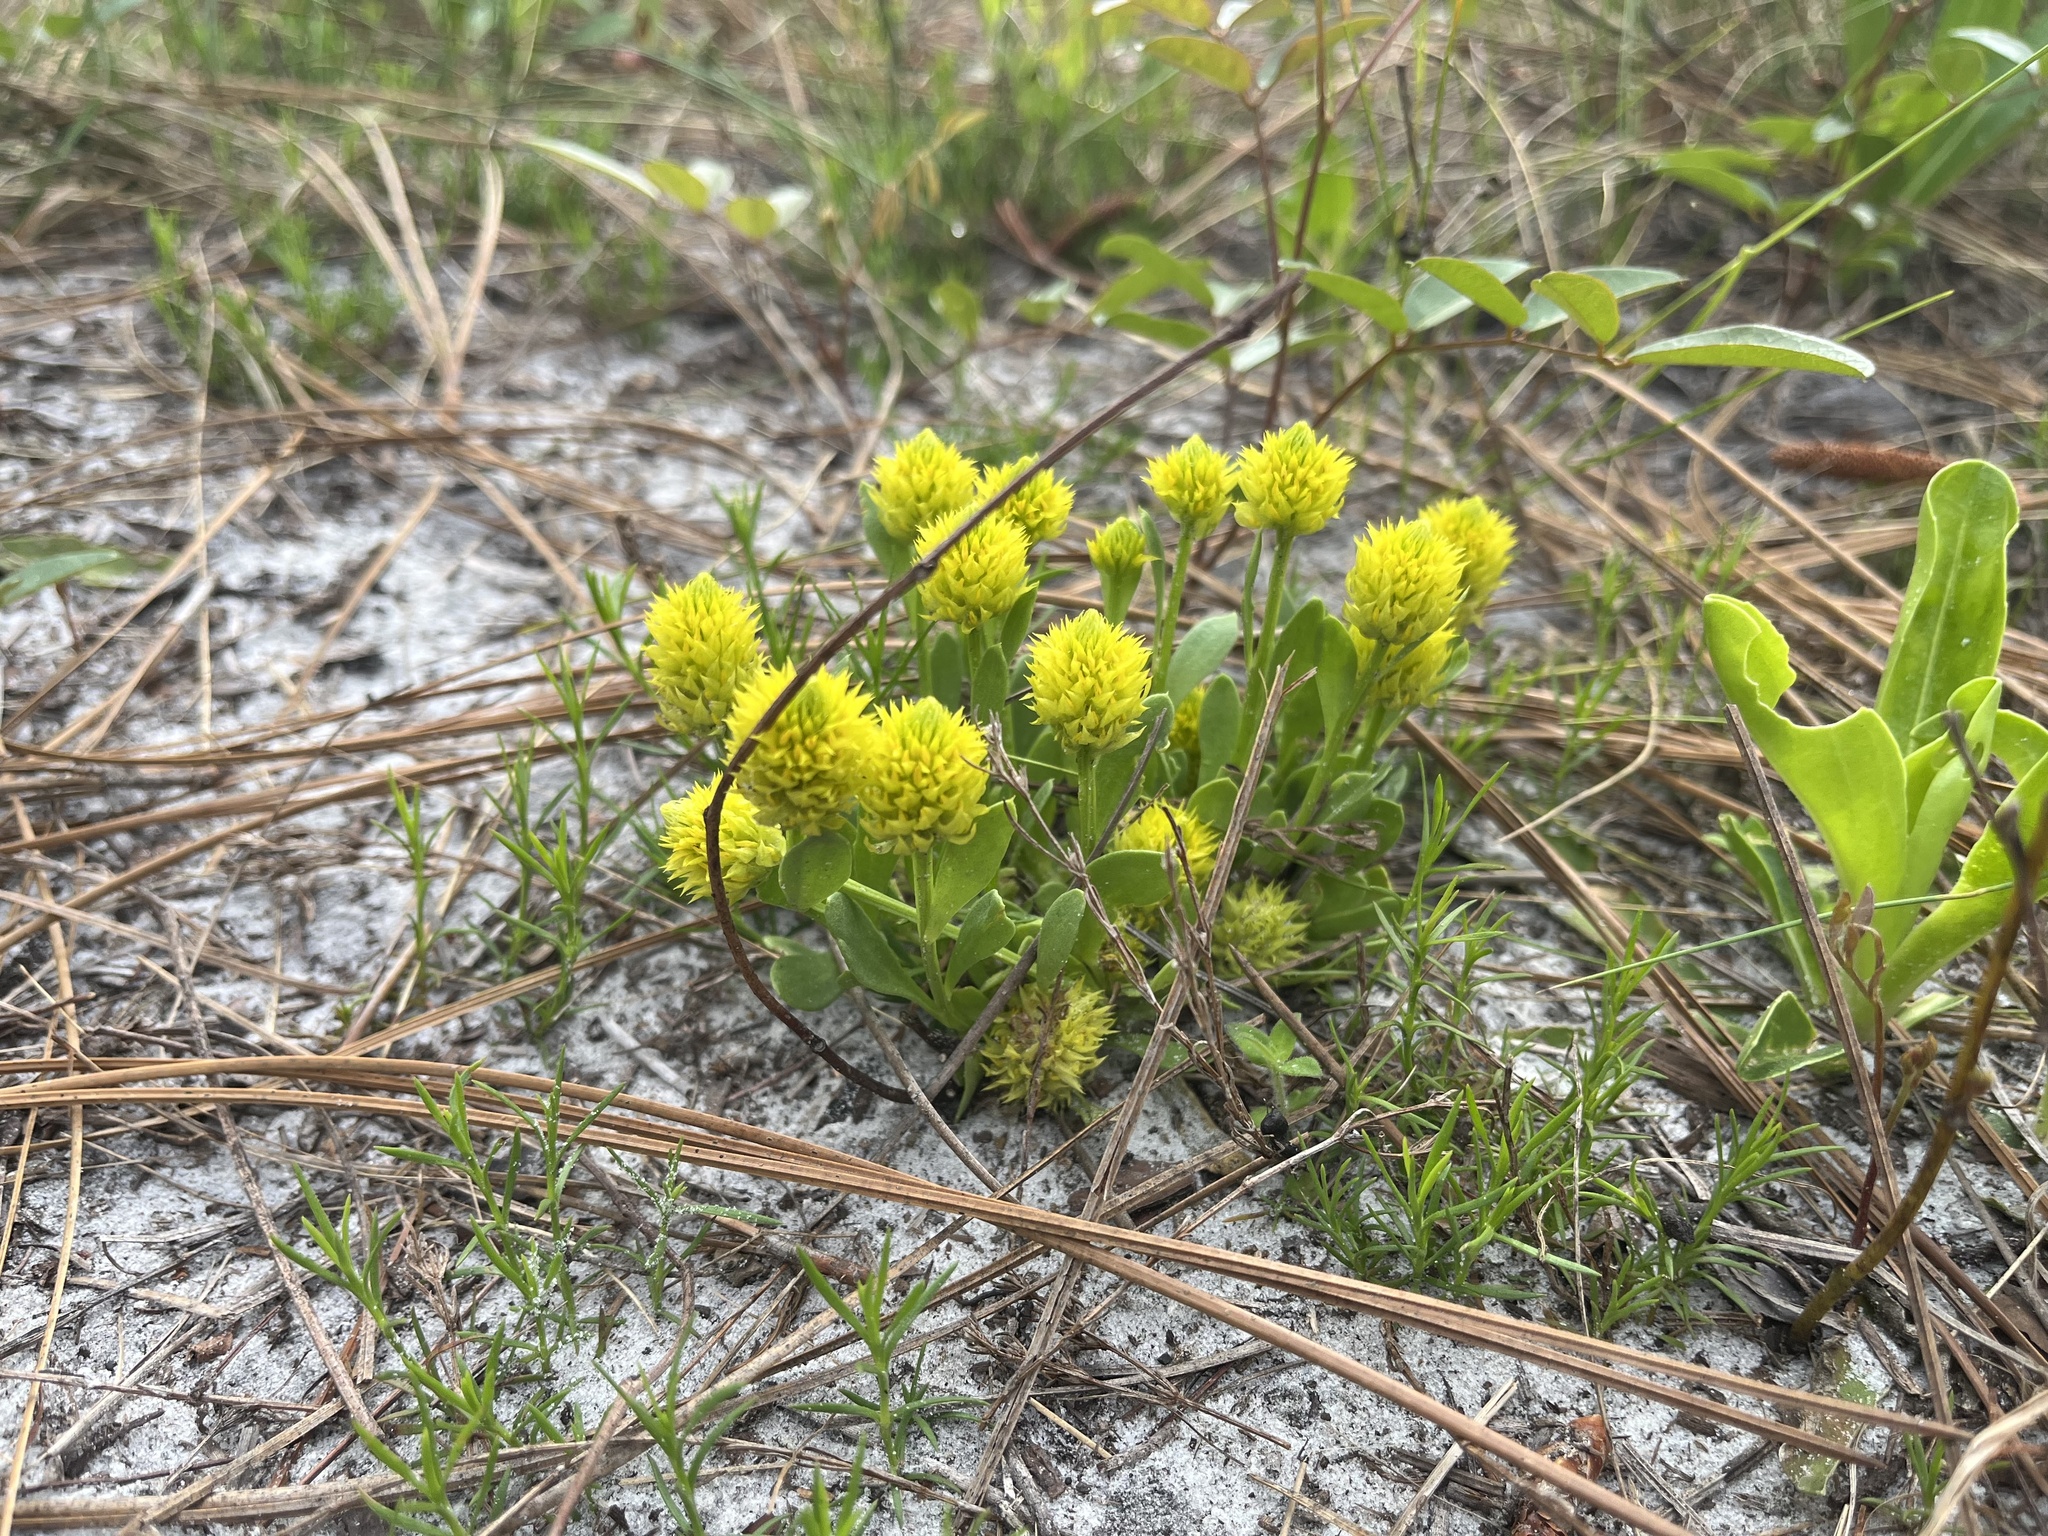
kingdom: Plantae
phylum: Tracheophyta
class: Magnoliopsida
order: Fabales
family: Polygalaceae
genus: Polygala
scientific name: Polygala nana
